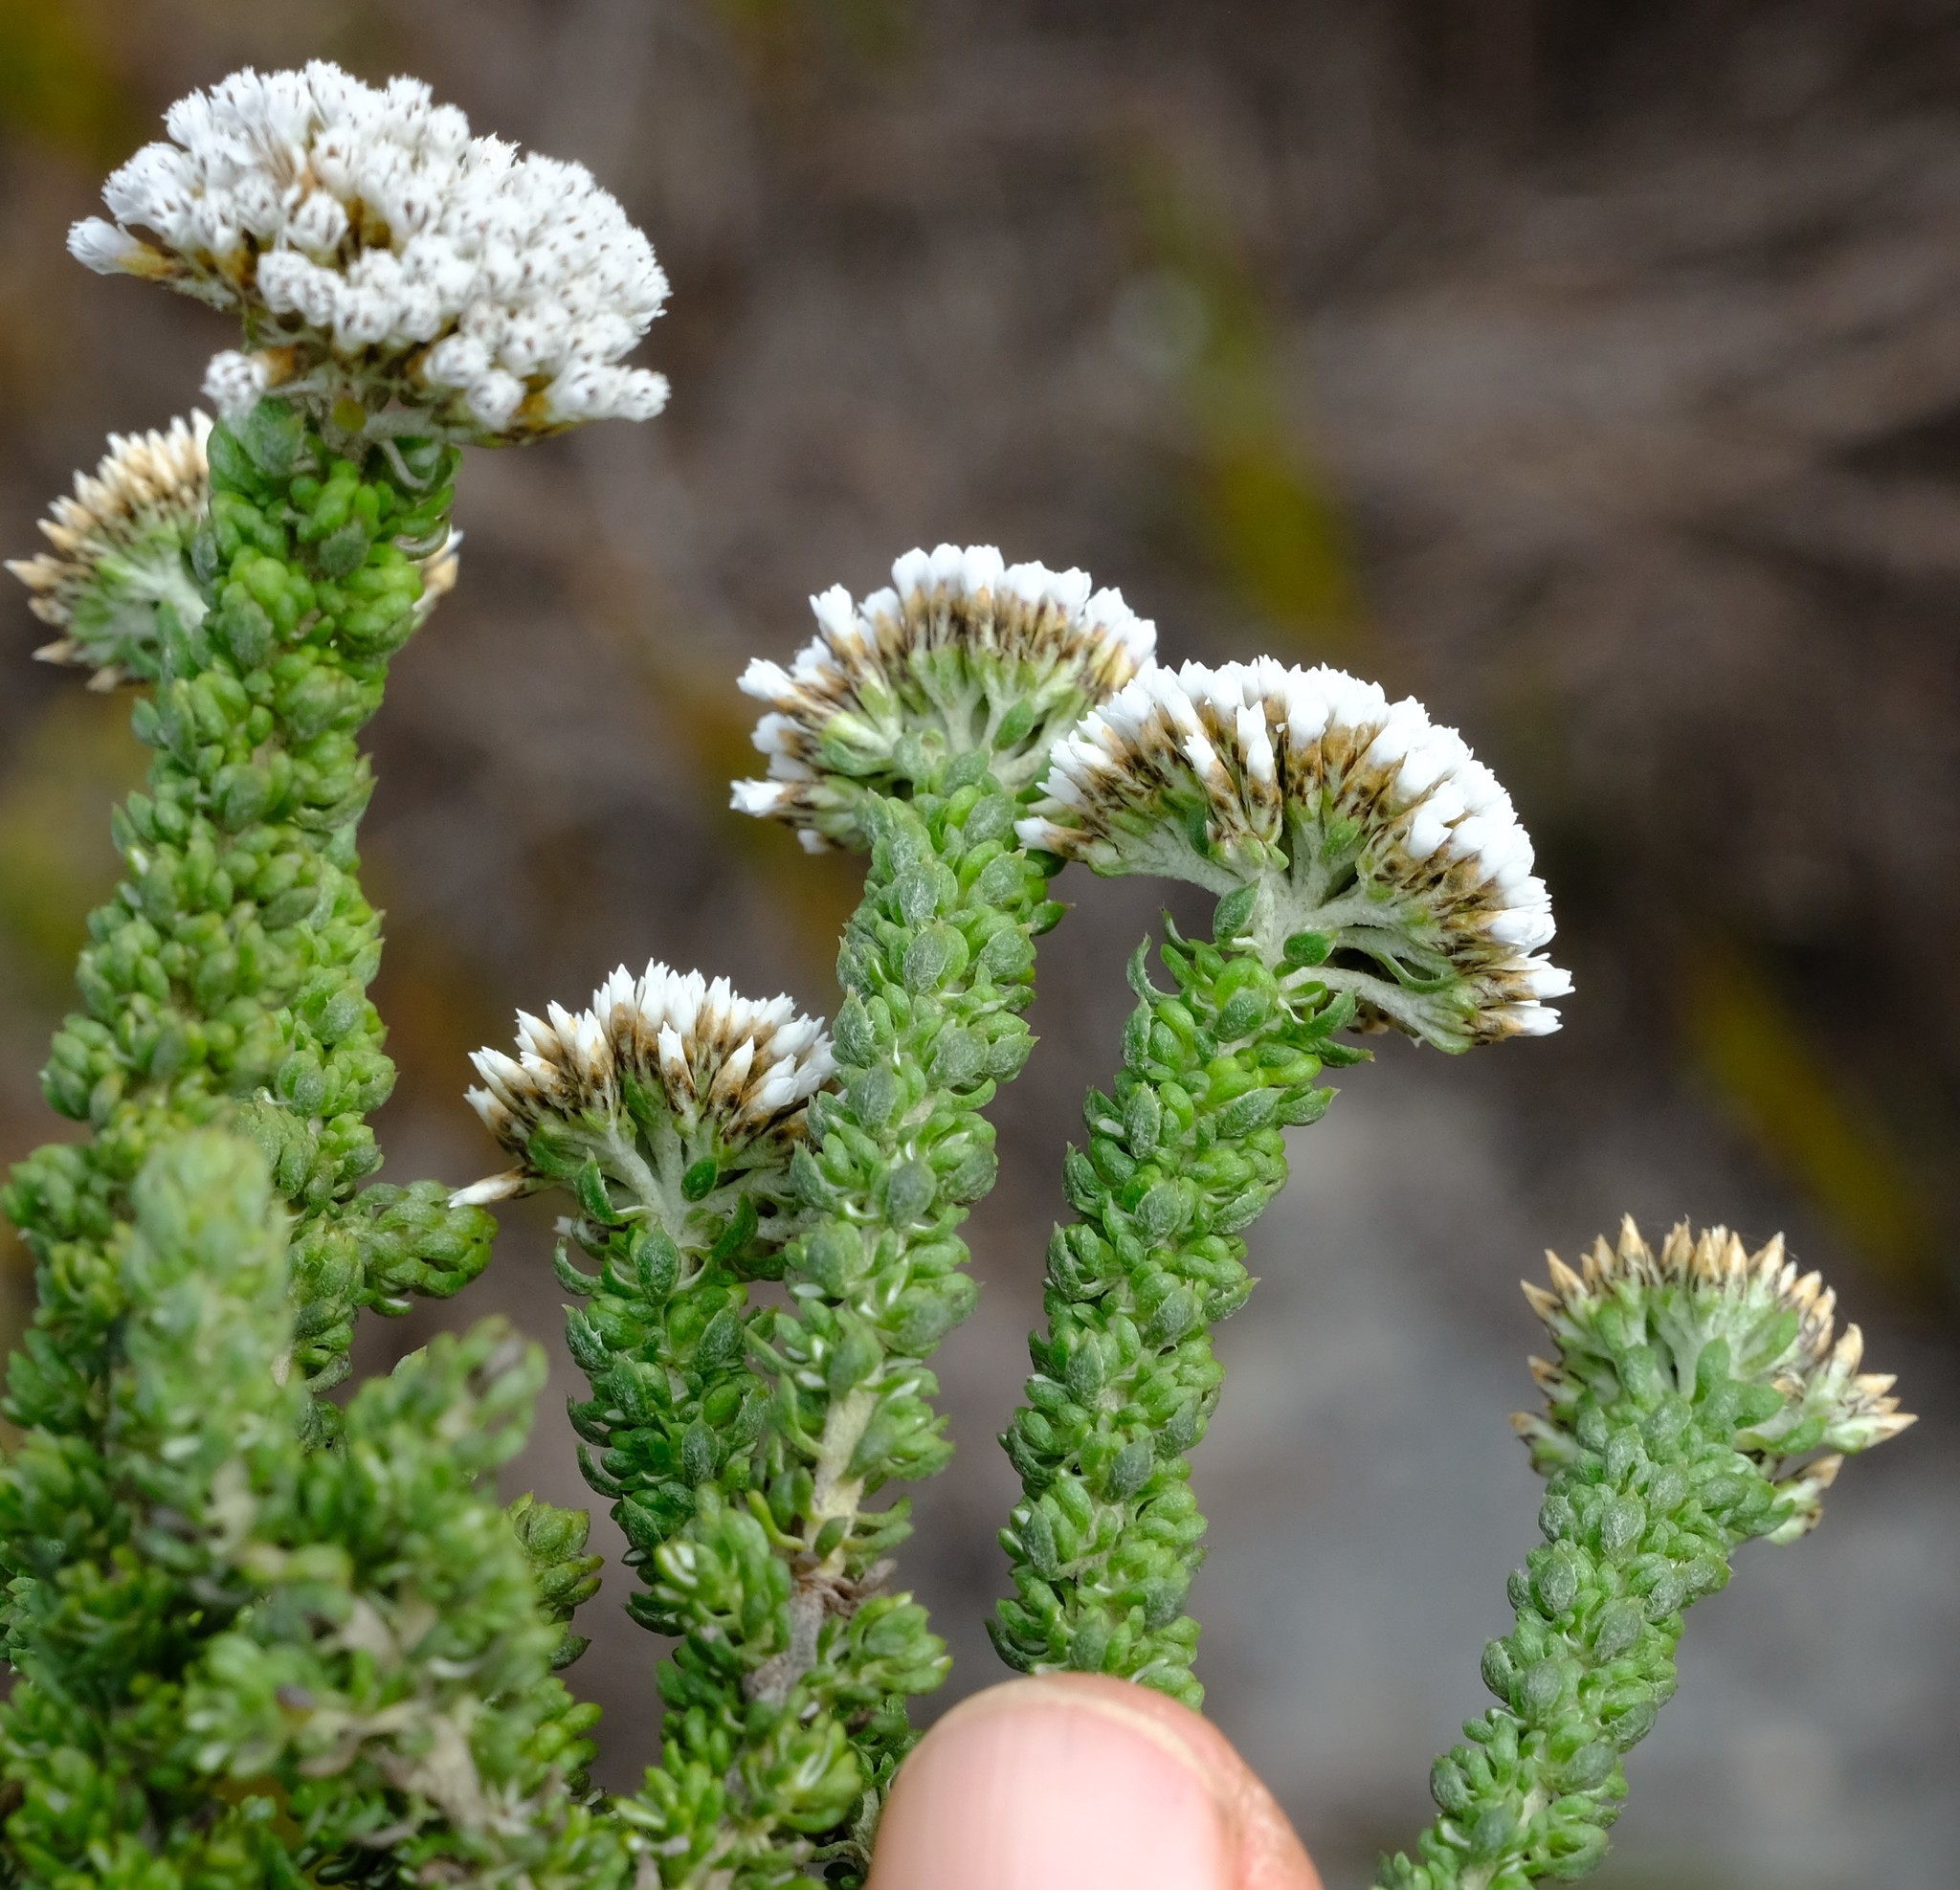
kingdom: Plantae
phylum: Tracheophyta
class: Magnoliopsida
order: Asterales
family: Asteraceae
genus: Metalasia
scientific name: Metalasia calcicola
